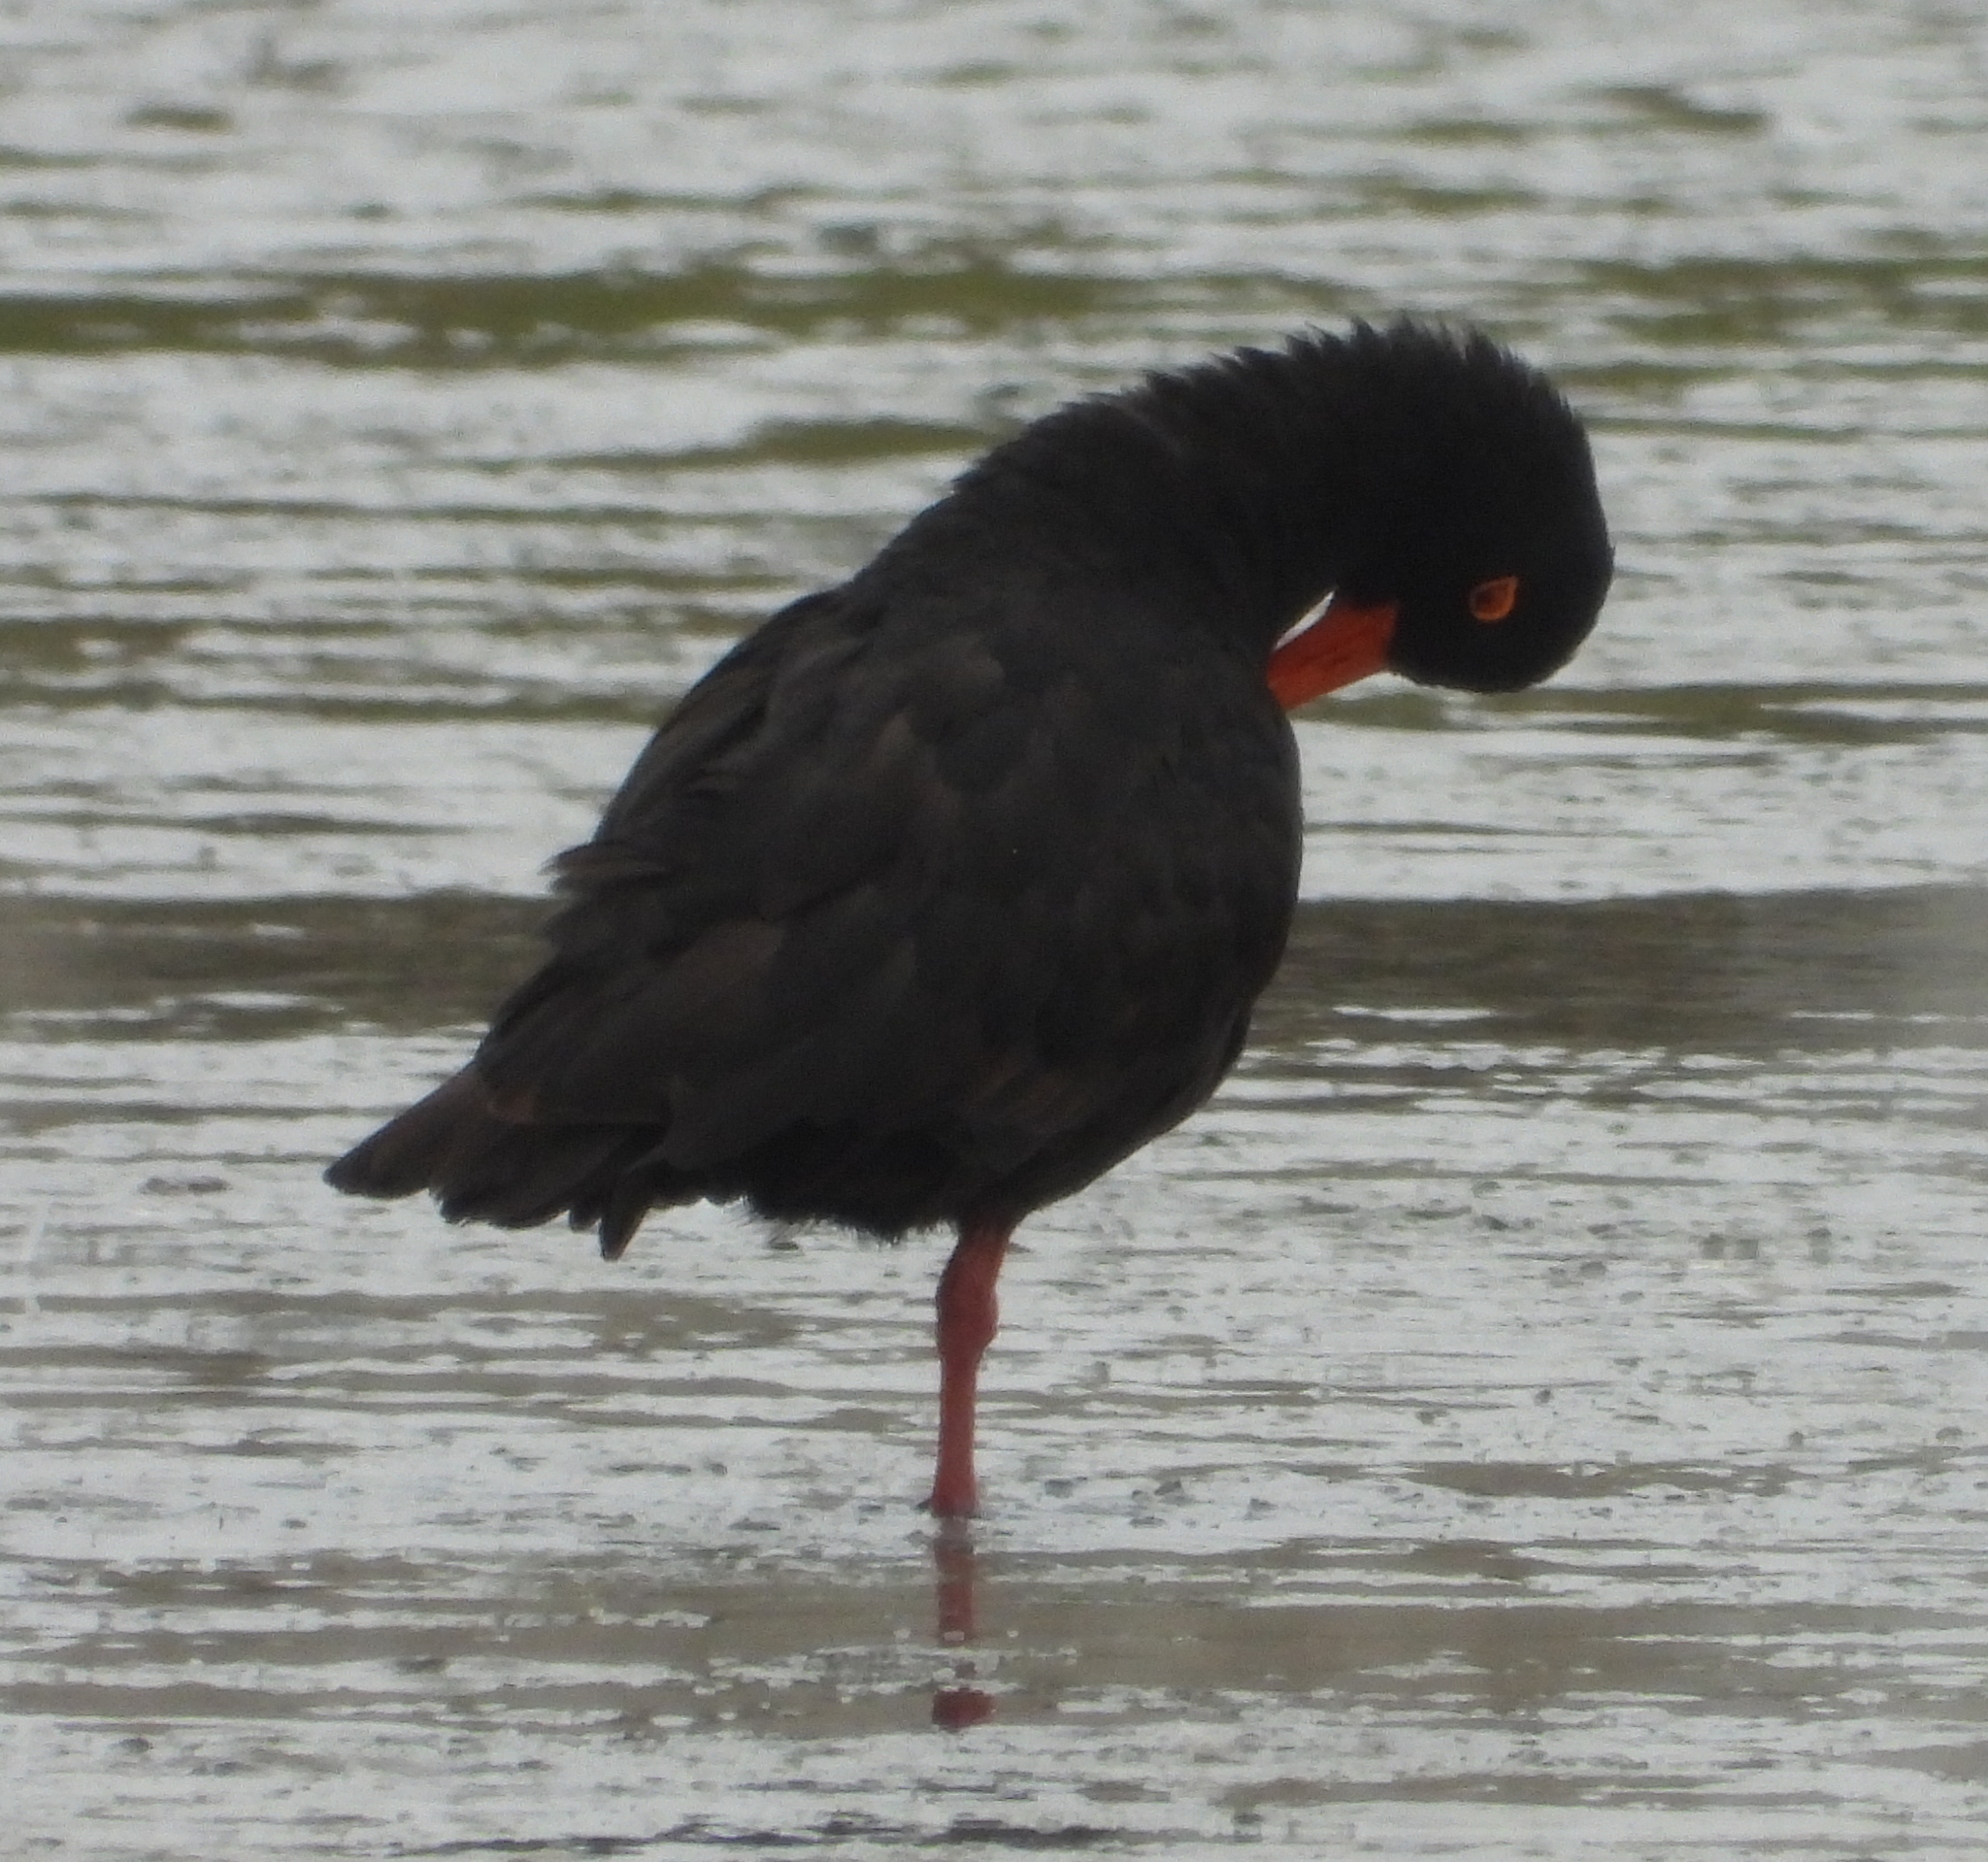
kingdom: Animalia
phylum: Chordata
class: Aves
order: Charadriiformes
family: Haematopodidae
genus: Haematopus
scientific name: Haematopus moquini
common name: African oystercatcher
